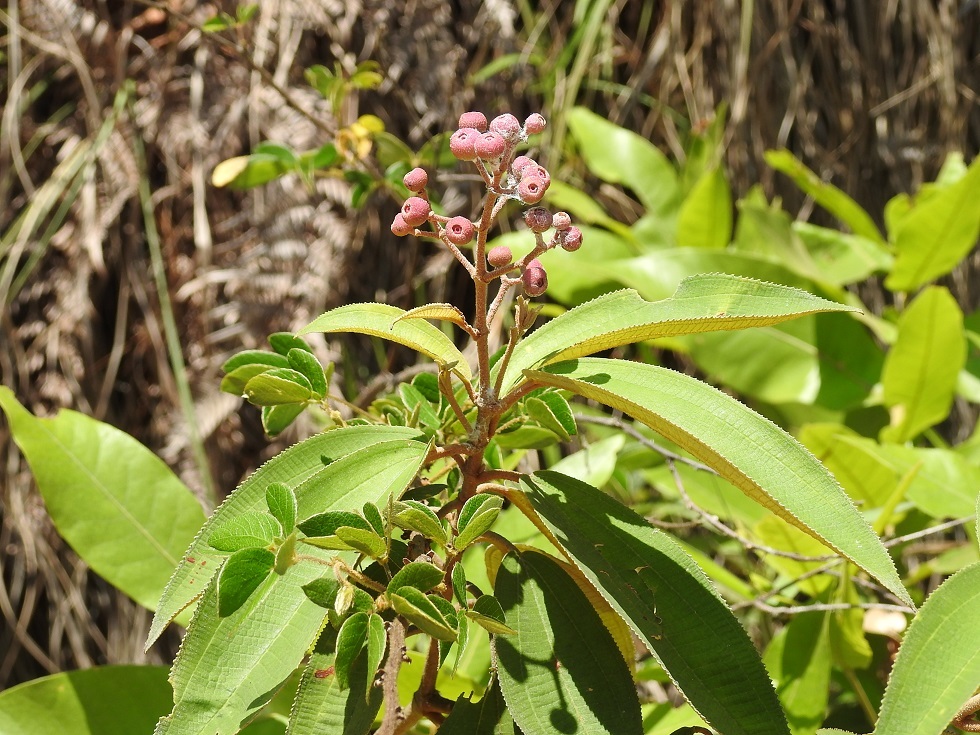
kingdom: Plantae
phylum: Tracheophyta
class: Magnoliopsida
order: Myrtales
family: Melastomataceae
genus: Miconia
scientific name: Miconia xalapensis
